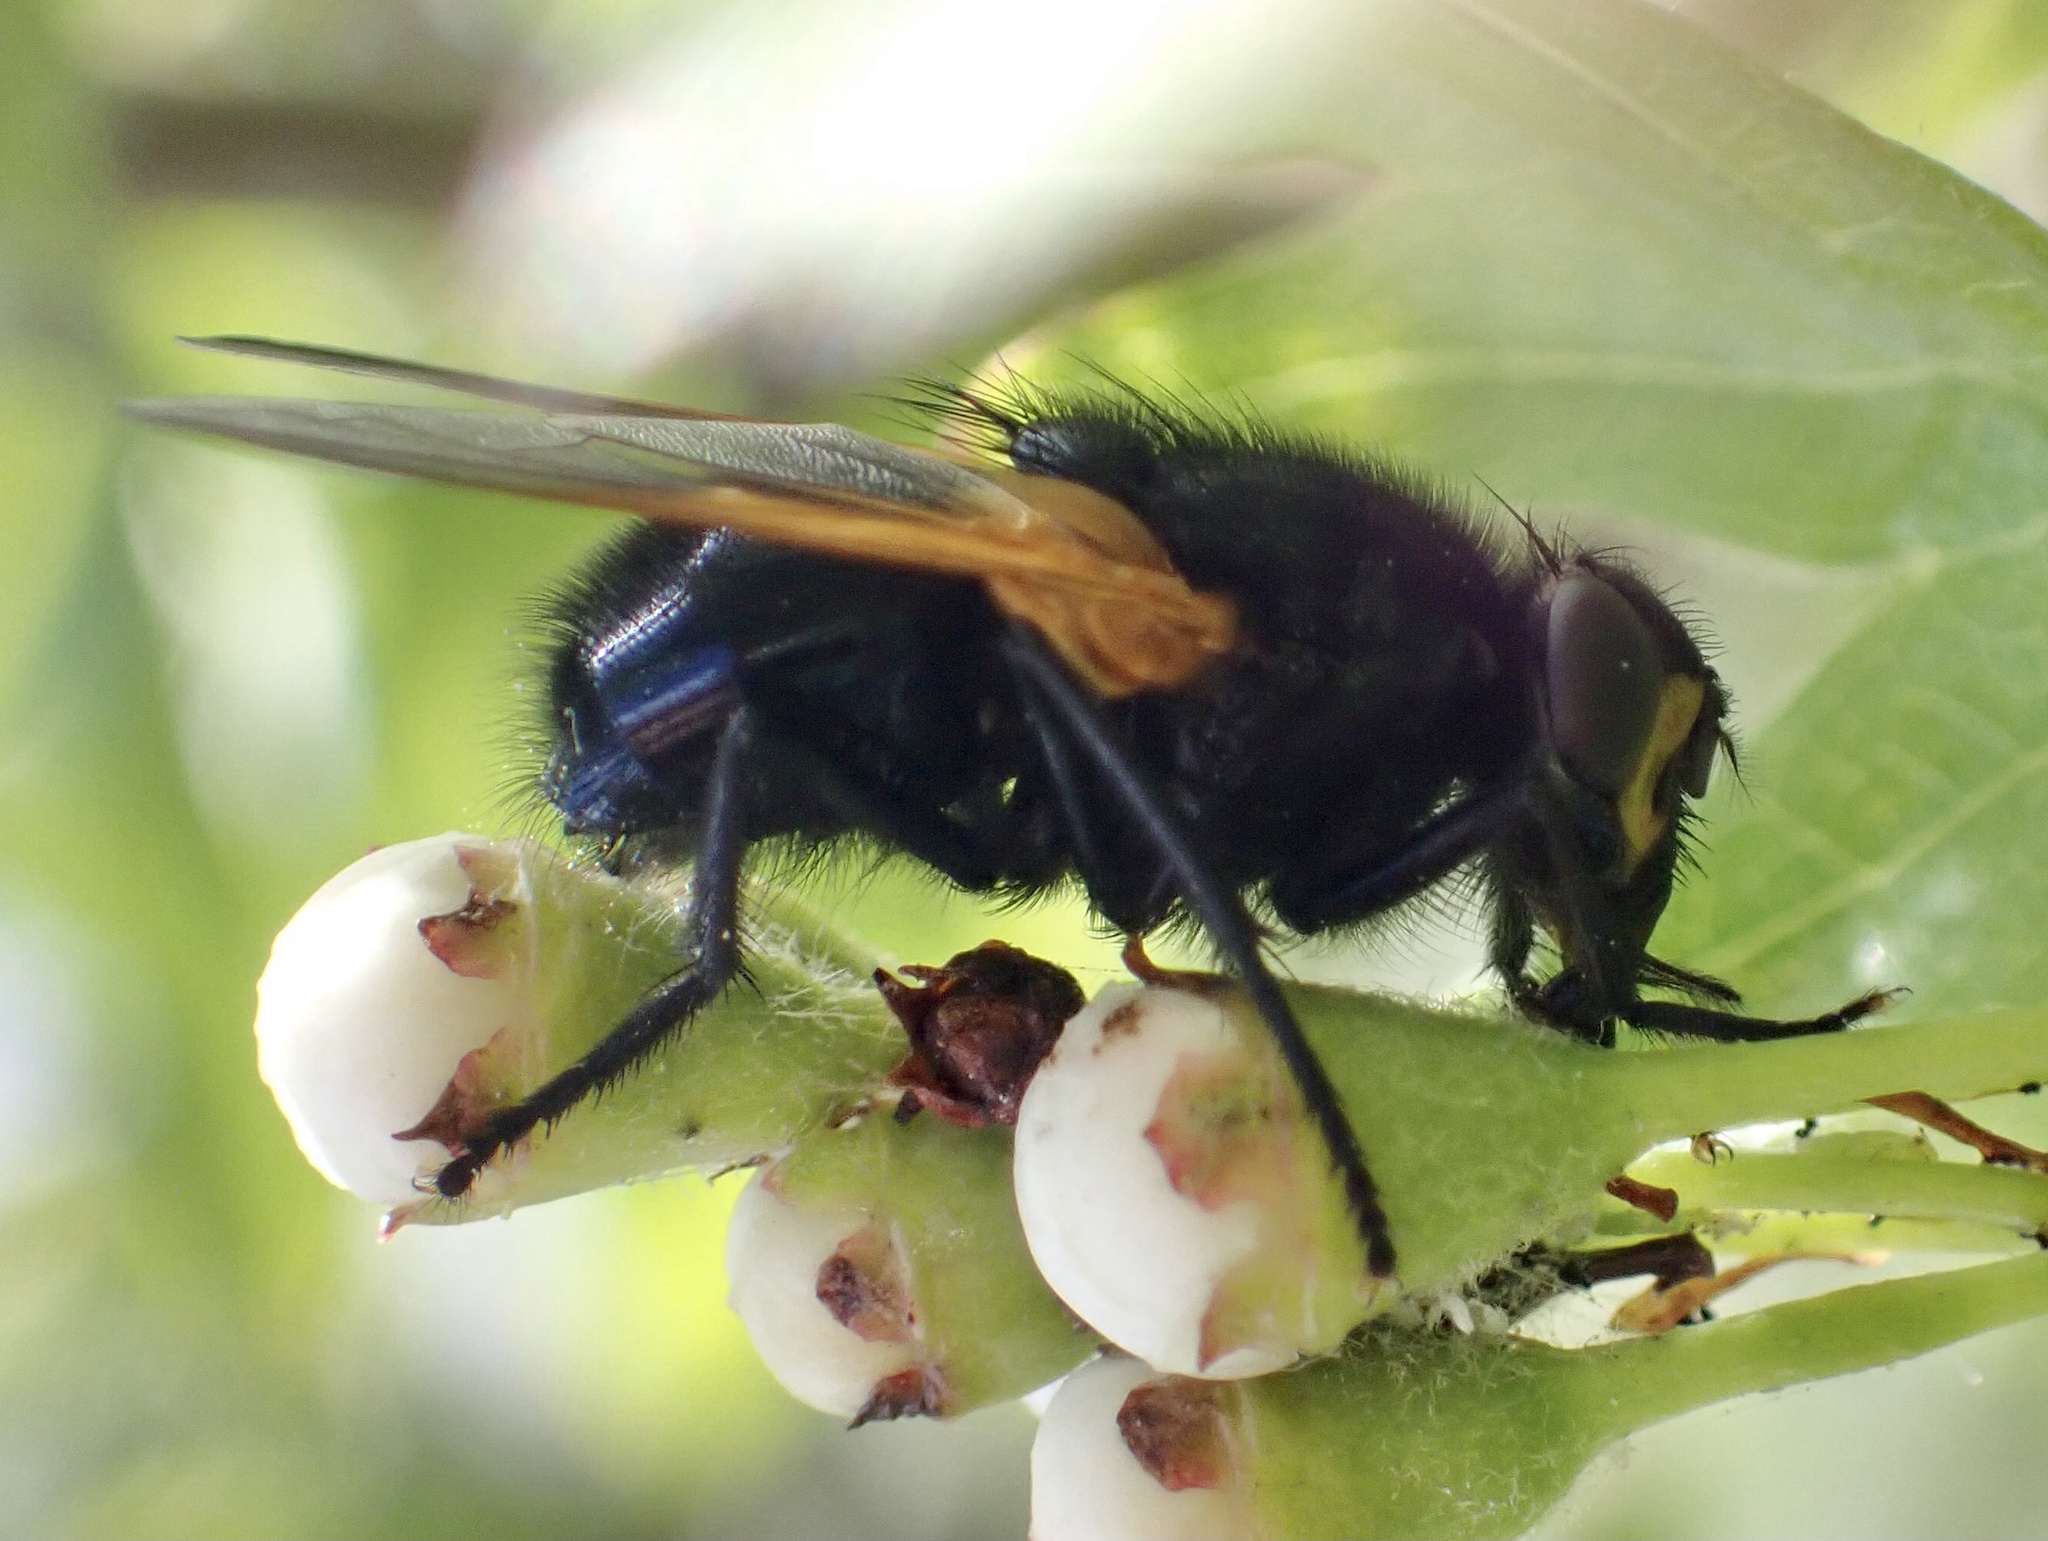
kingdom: Animalia
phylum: Arthropoda
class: Insecta
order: Diptera
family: Muscidae
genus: Mesembrina
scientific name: Mesembrina meridiana
